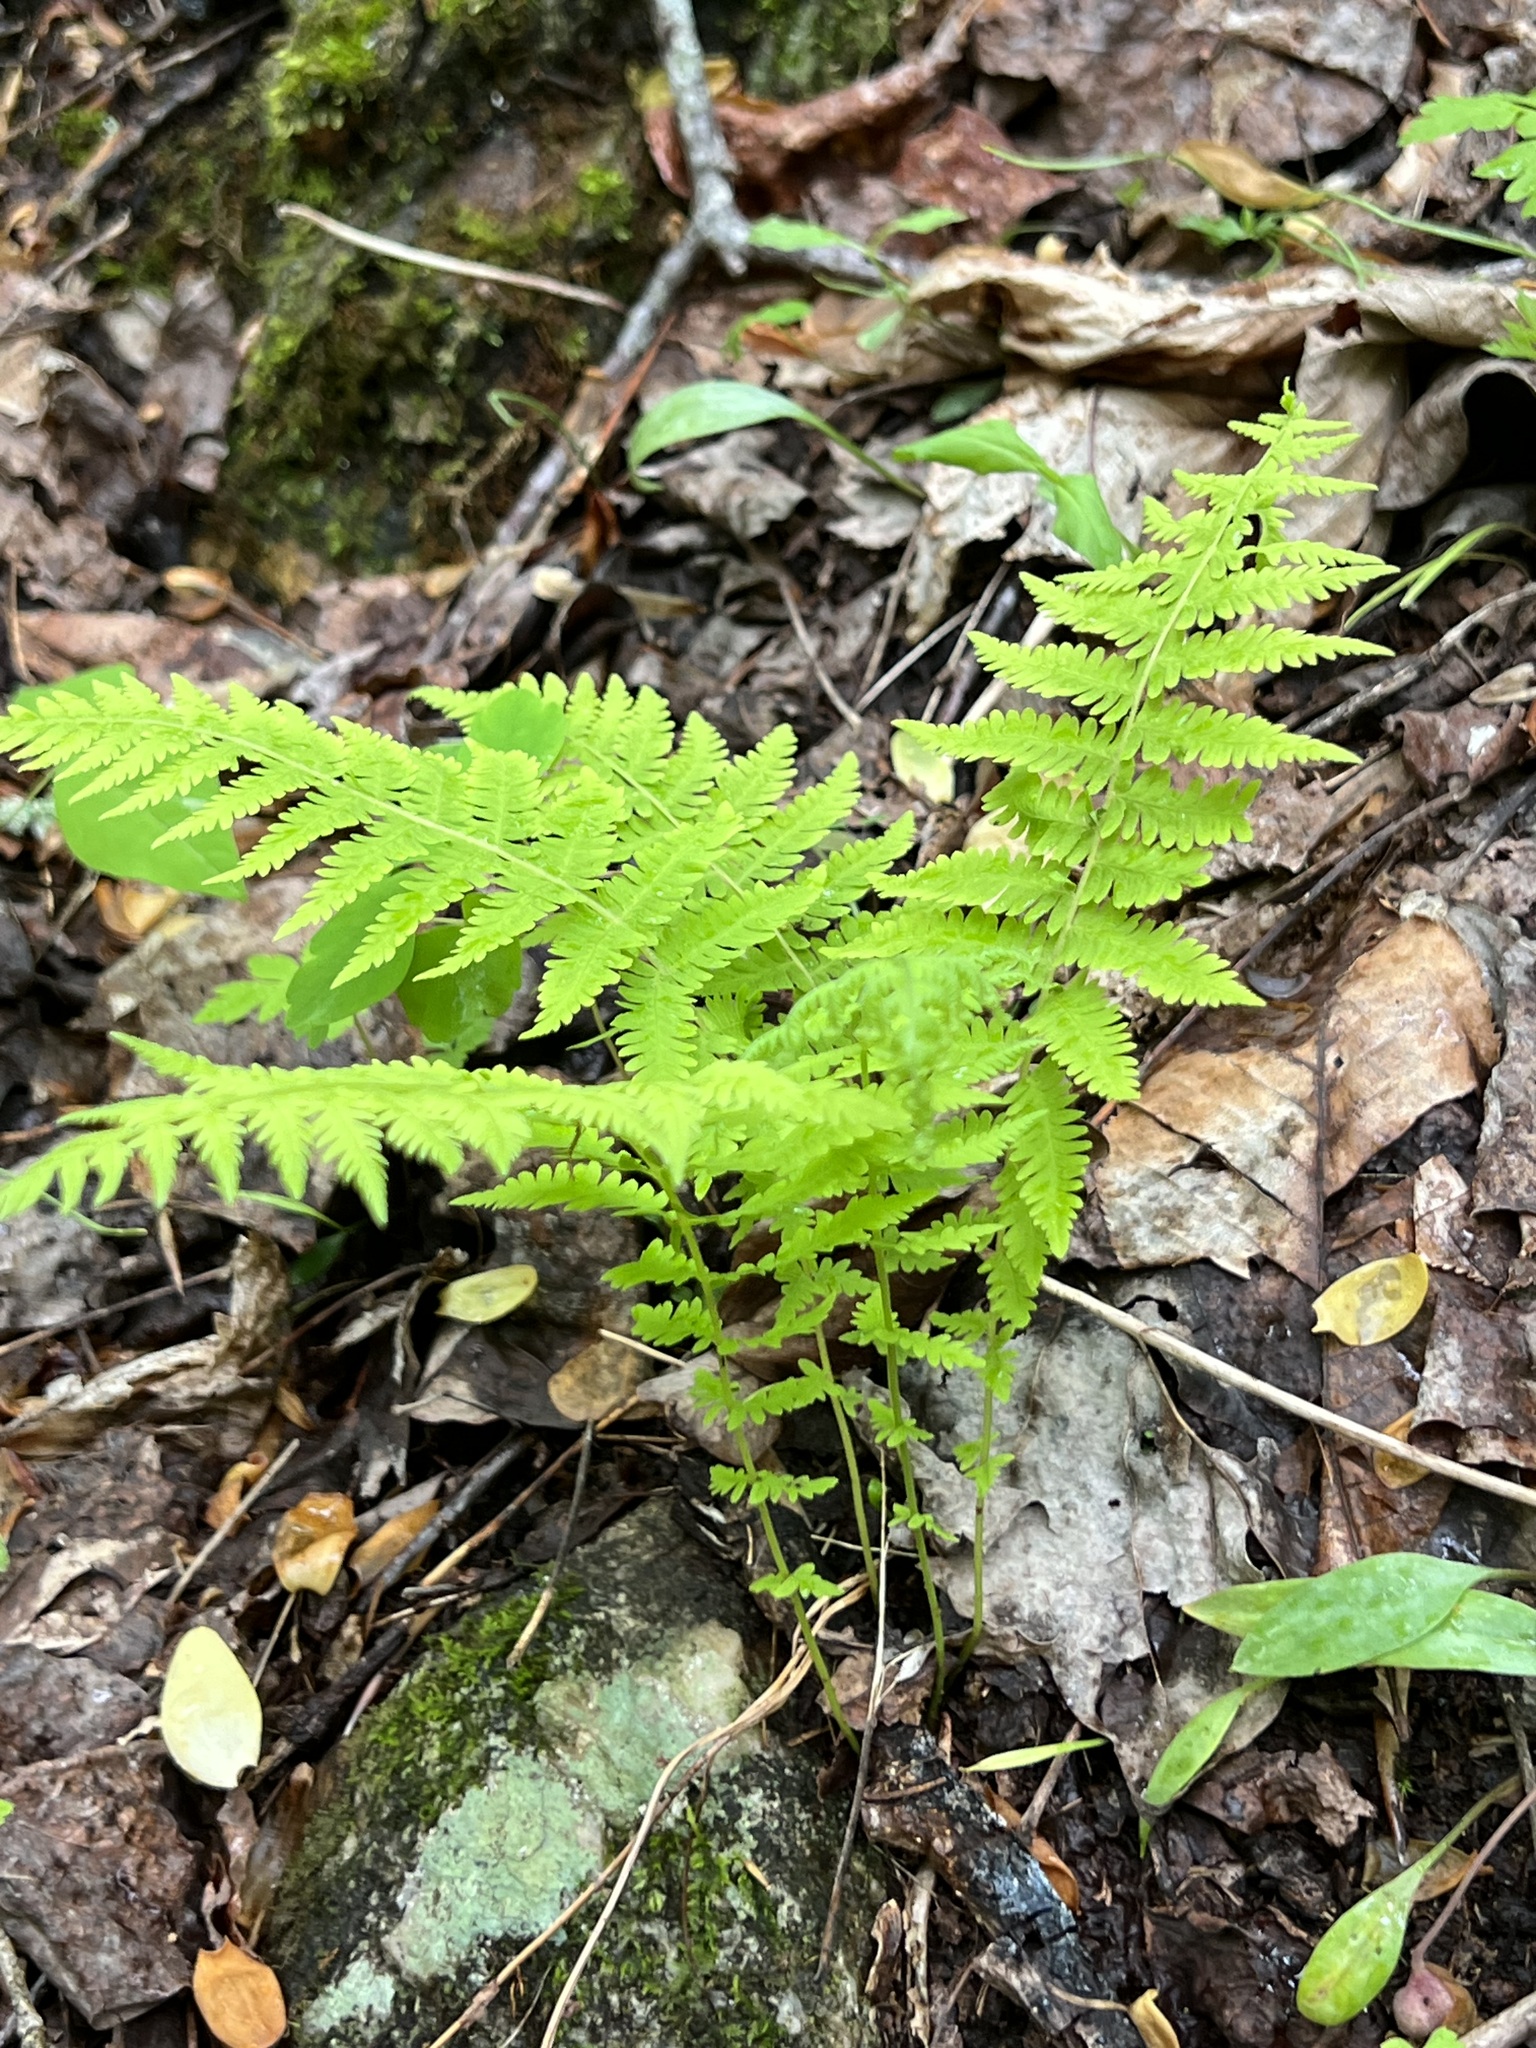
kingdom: Plantae
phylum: Tracheophyta
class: Polypodiopsida
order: Polypodiales
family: Thelypteridaceae
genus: Amauropelta
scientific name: Amauropelta noveboracensis
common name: New york fern
